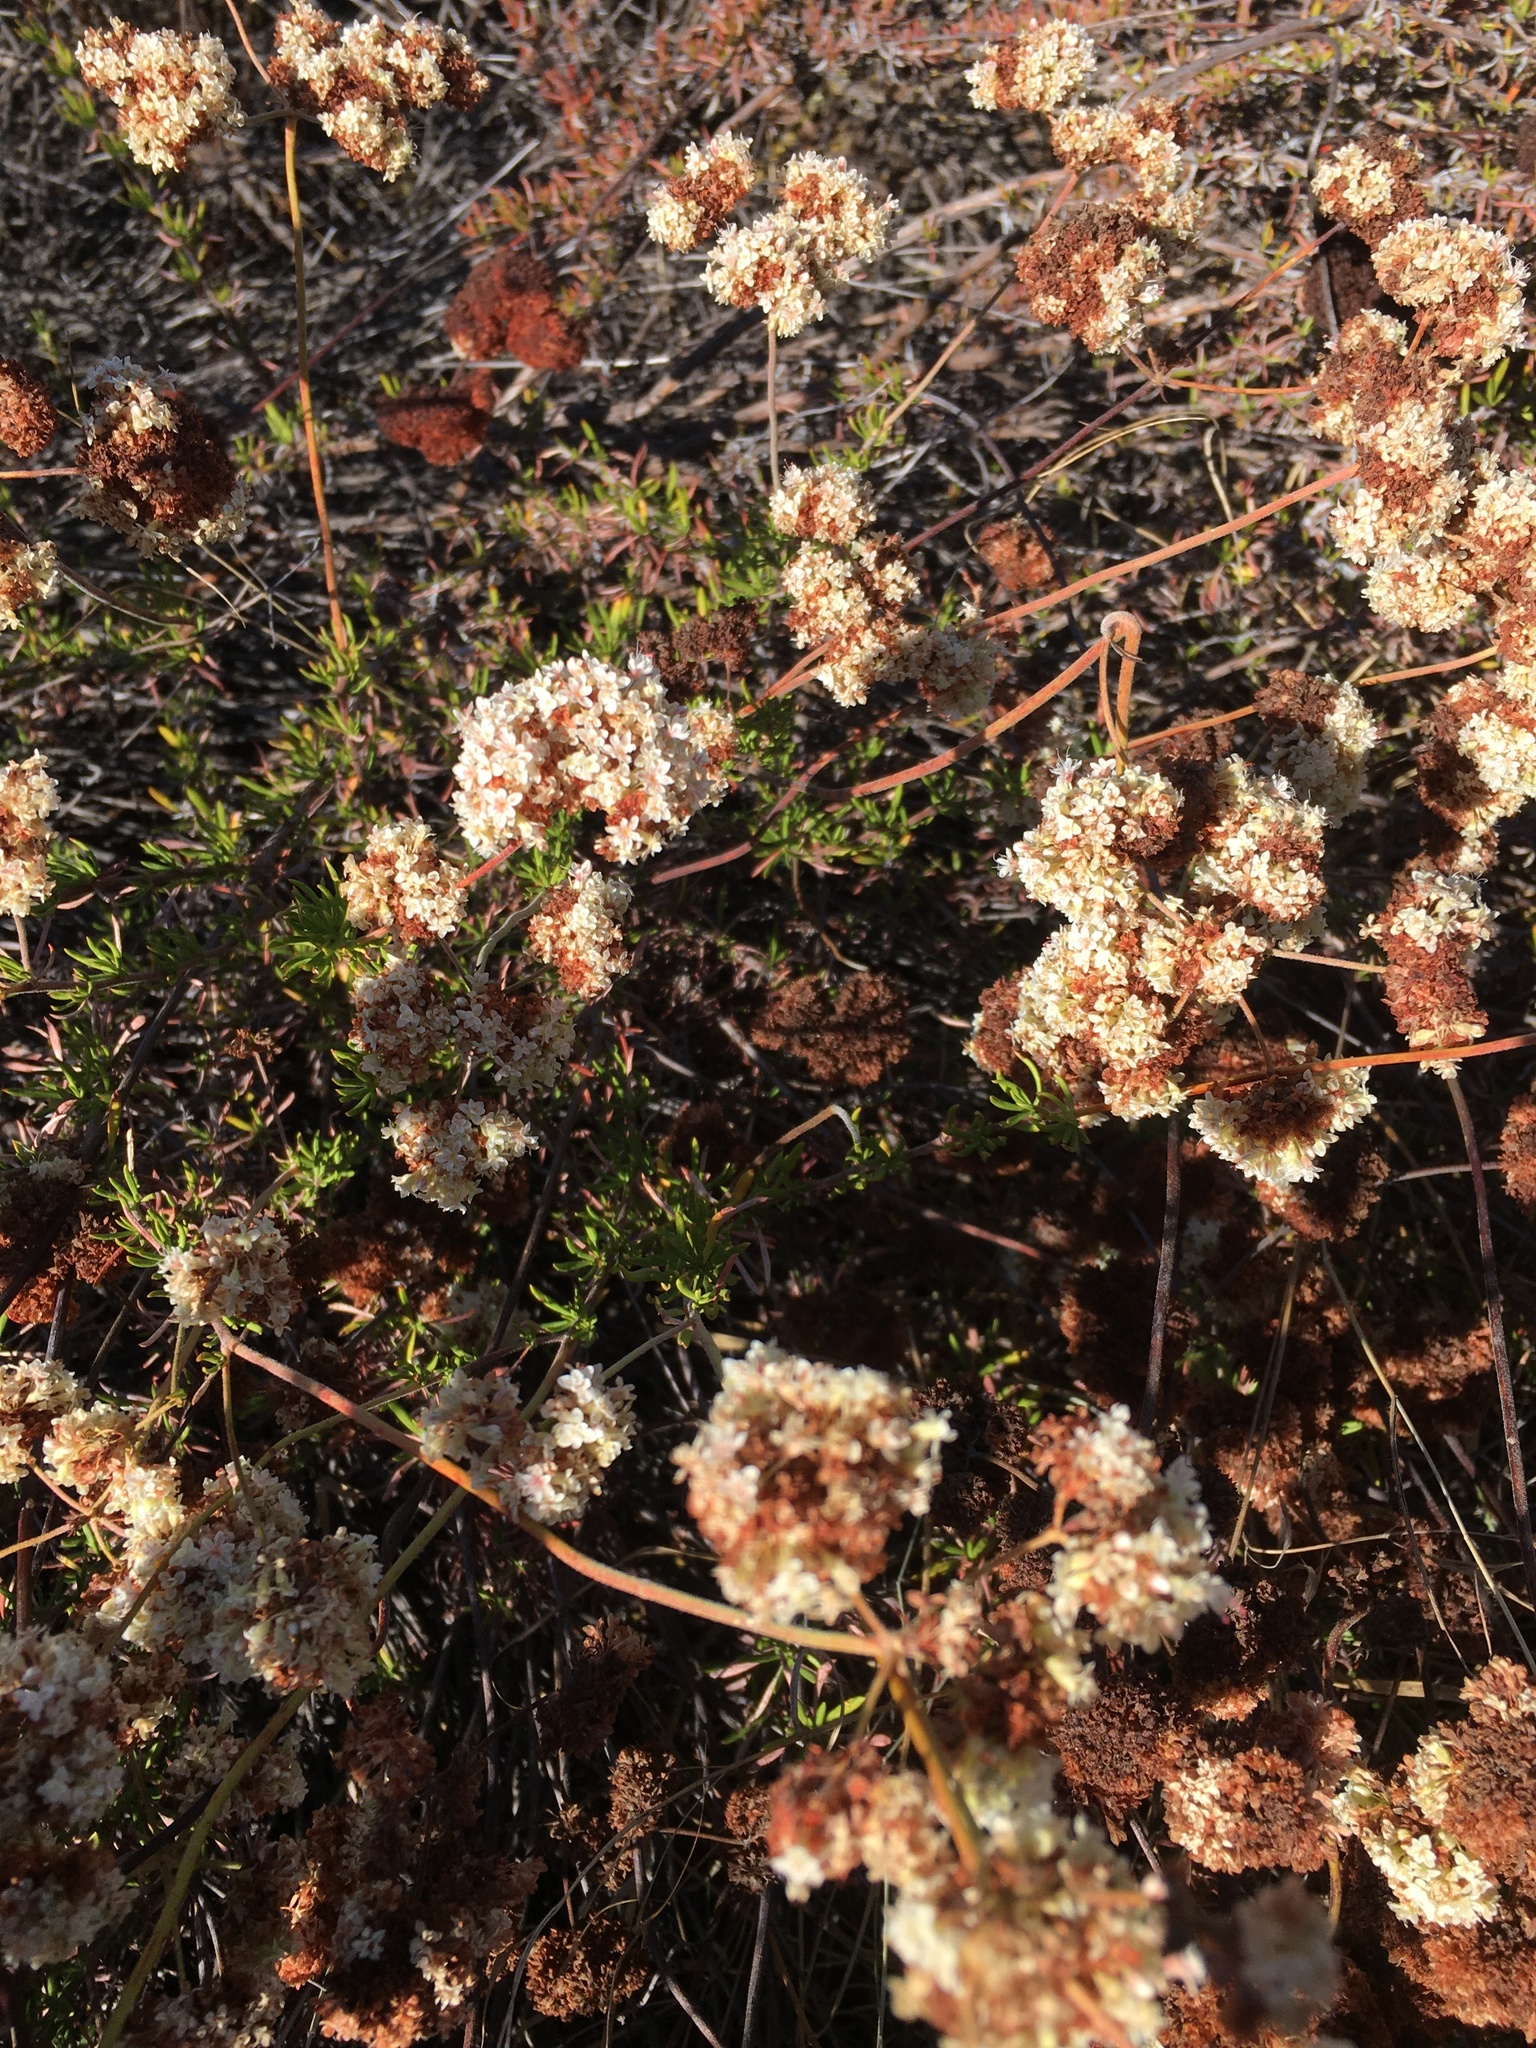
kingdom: Plantae
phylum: Tracheophyta
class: Magnoliopsida
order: Caryophyllales
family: Polygonaceae
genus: Eriogonum
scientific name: Eriogonum fasciculatum
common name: California wild buckwheat
